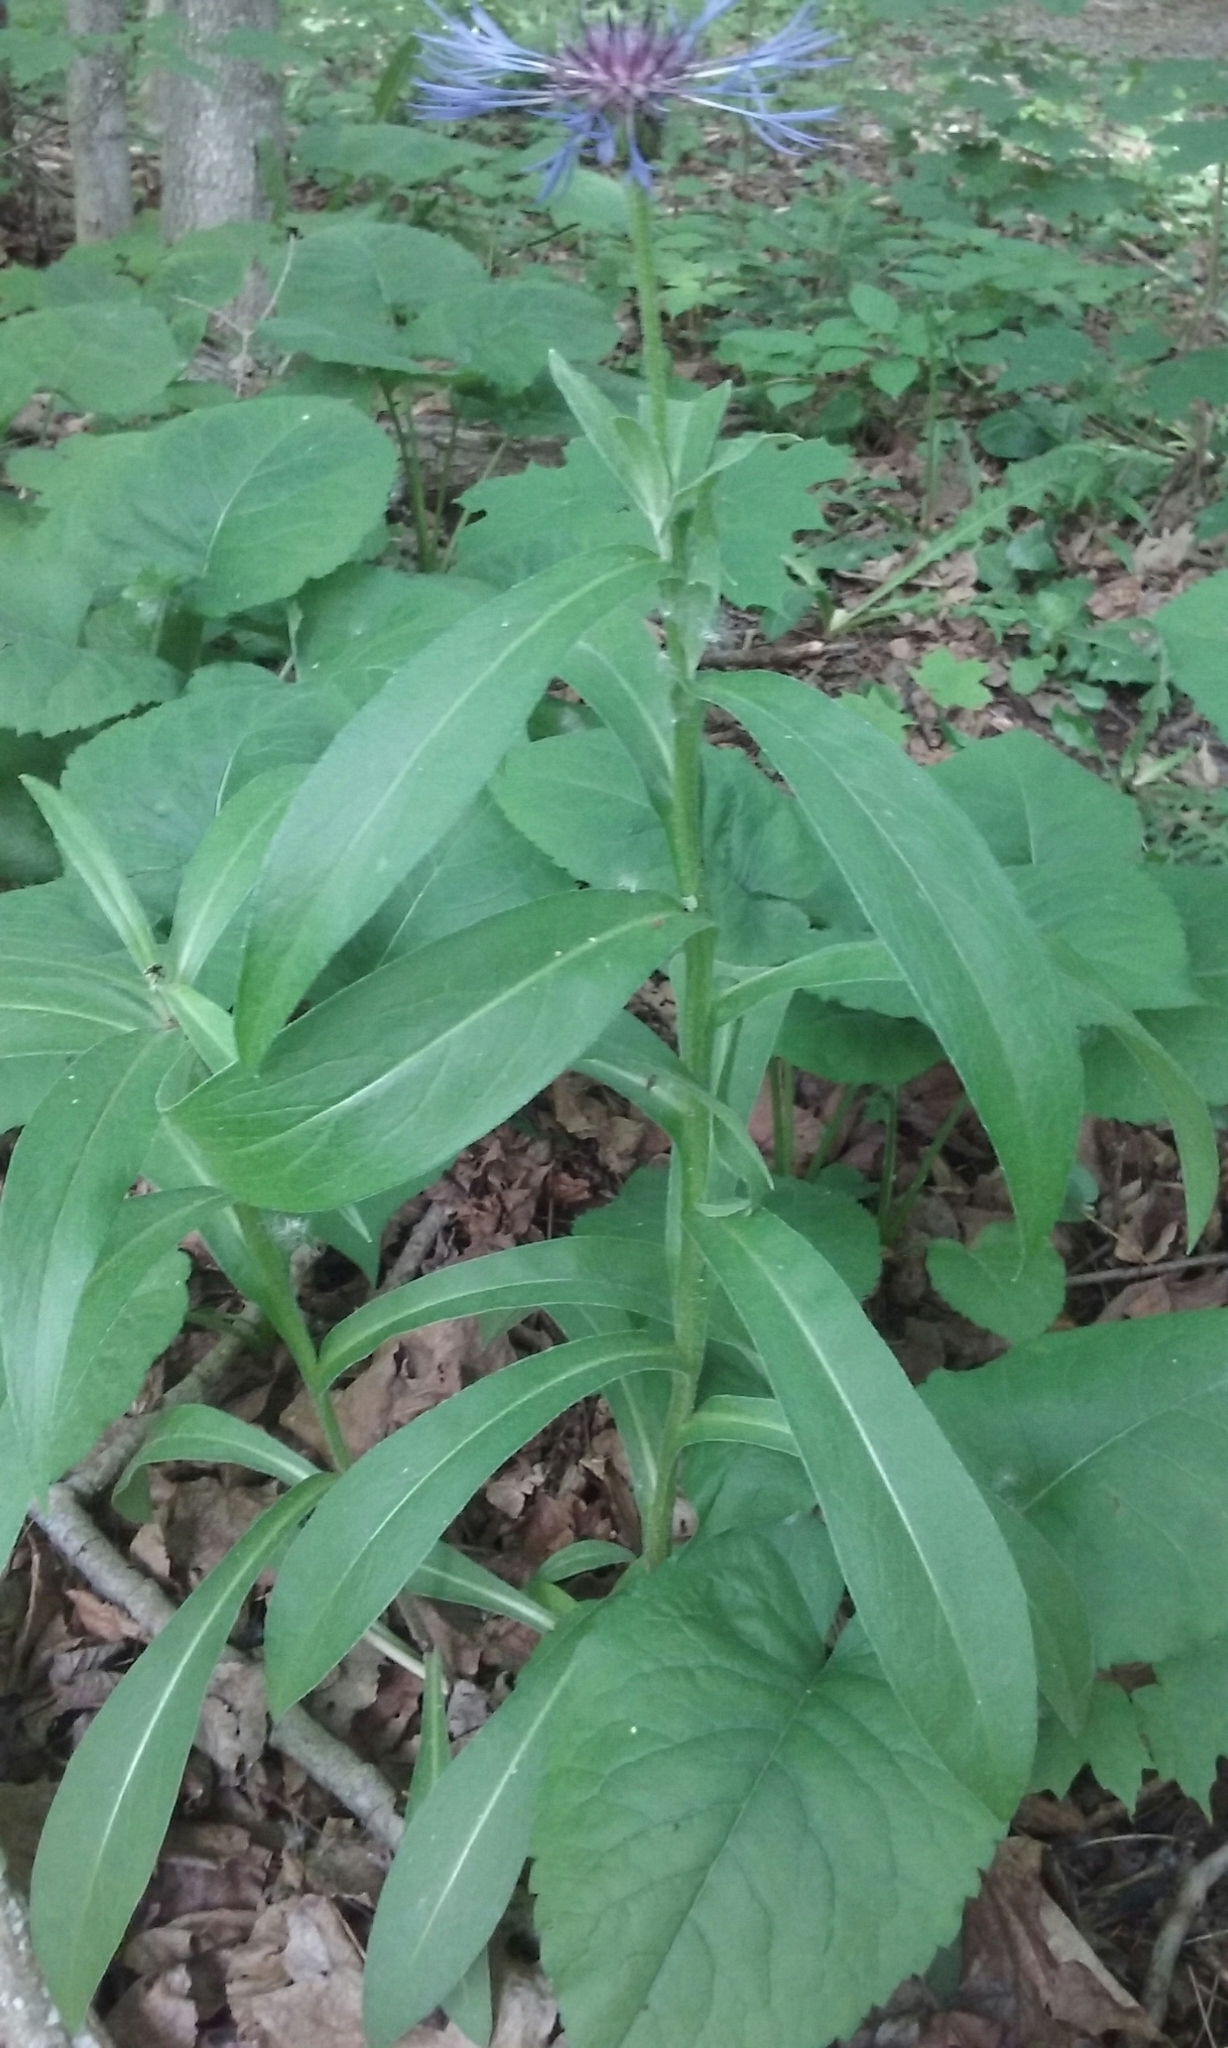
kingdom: Plantae
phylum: Tracheophyta
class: Magnoliopsida
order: Asterales
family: Asteraceae
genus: Centaurea
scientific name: Centaurea montana
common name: Perennial cornflower
